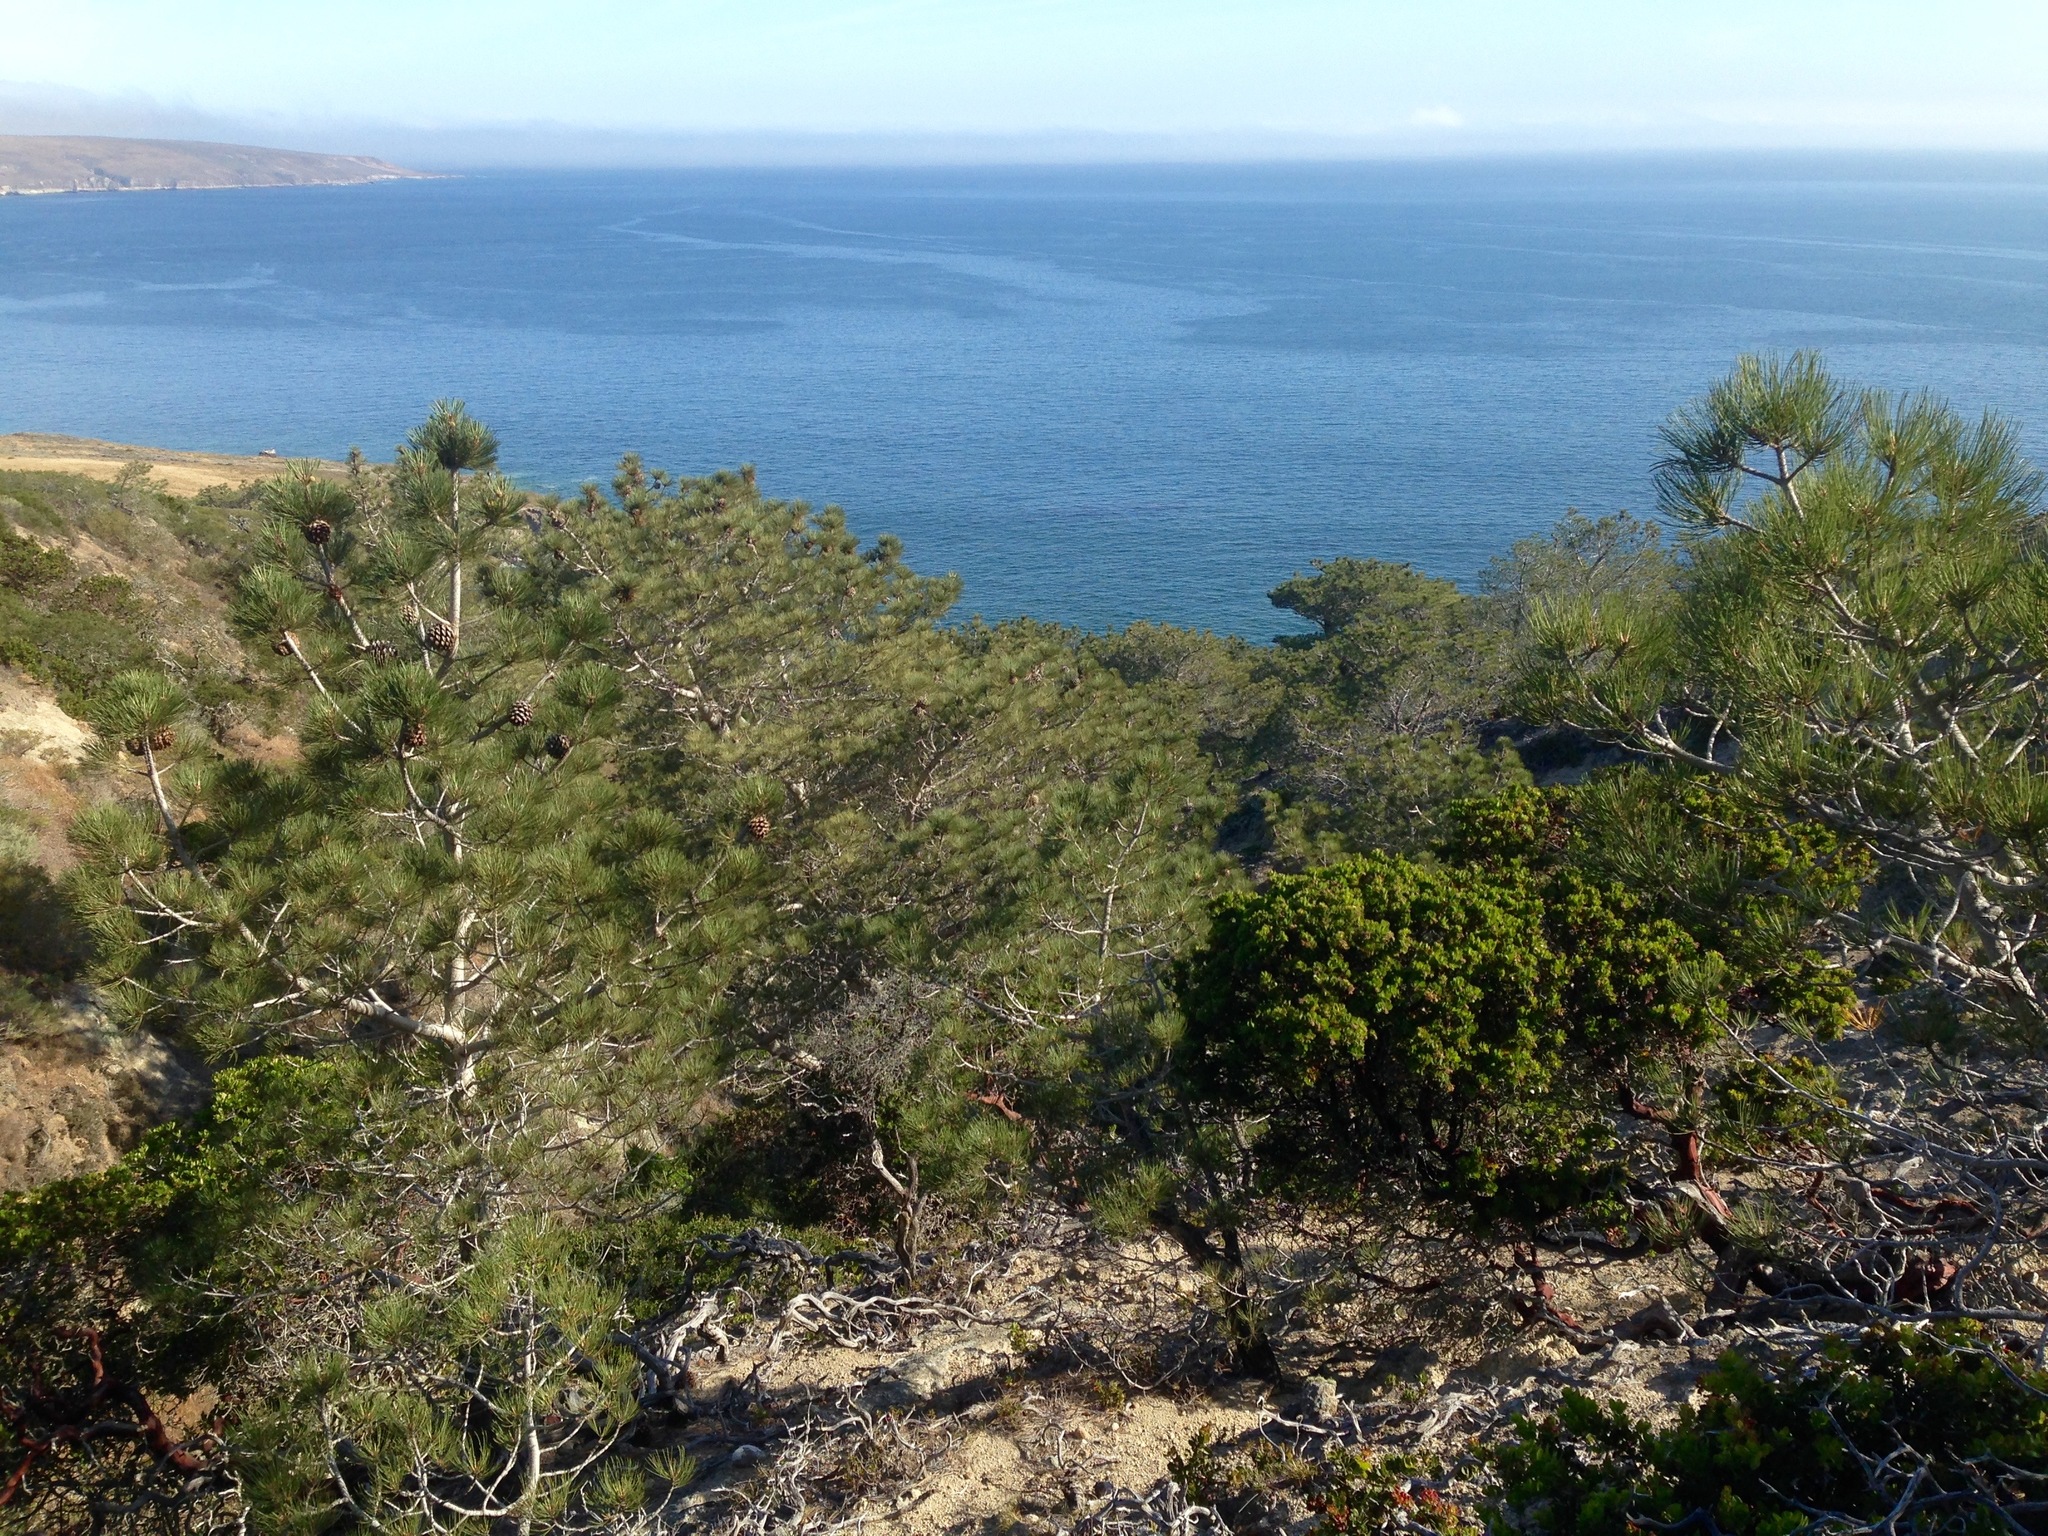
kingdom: Plantae
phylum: Tracheophyta
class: Pinopsida
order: Pinales
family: Pinaceae
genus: Pinus
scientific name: Pinus torreyana
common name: Torrey pine
